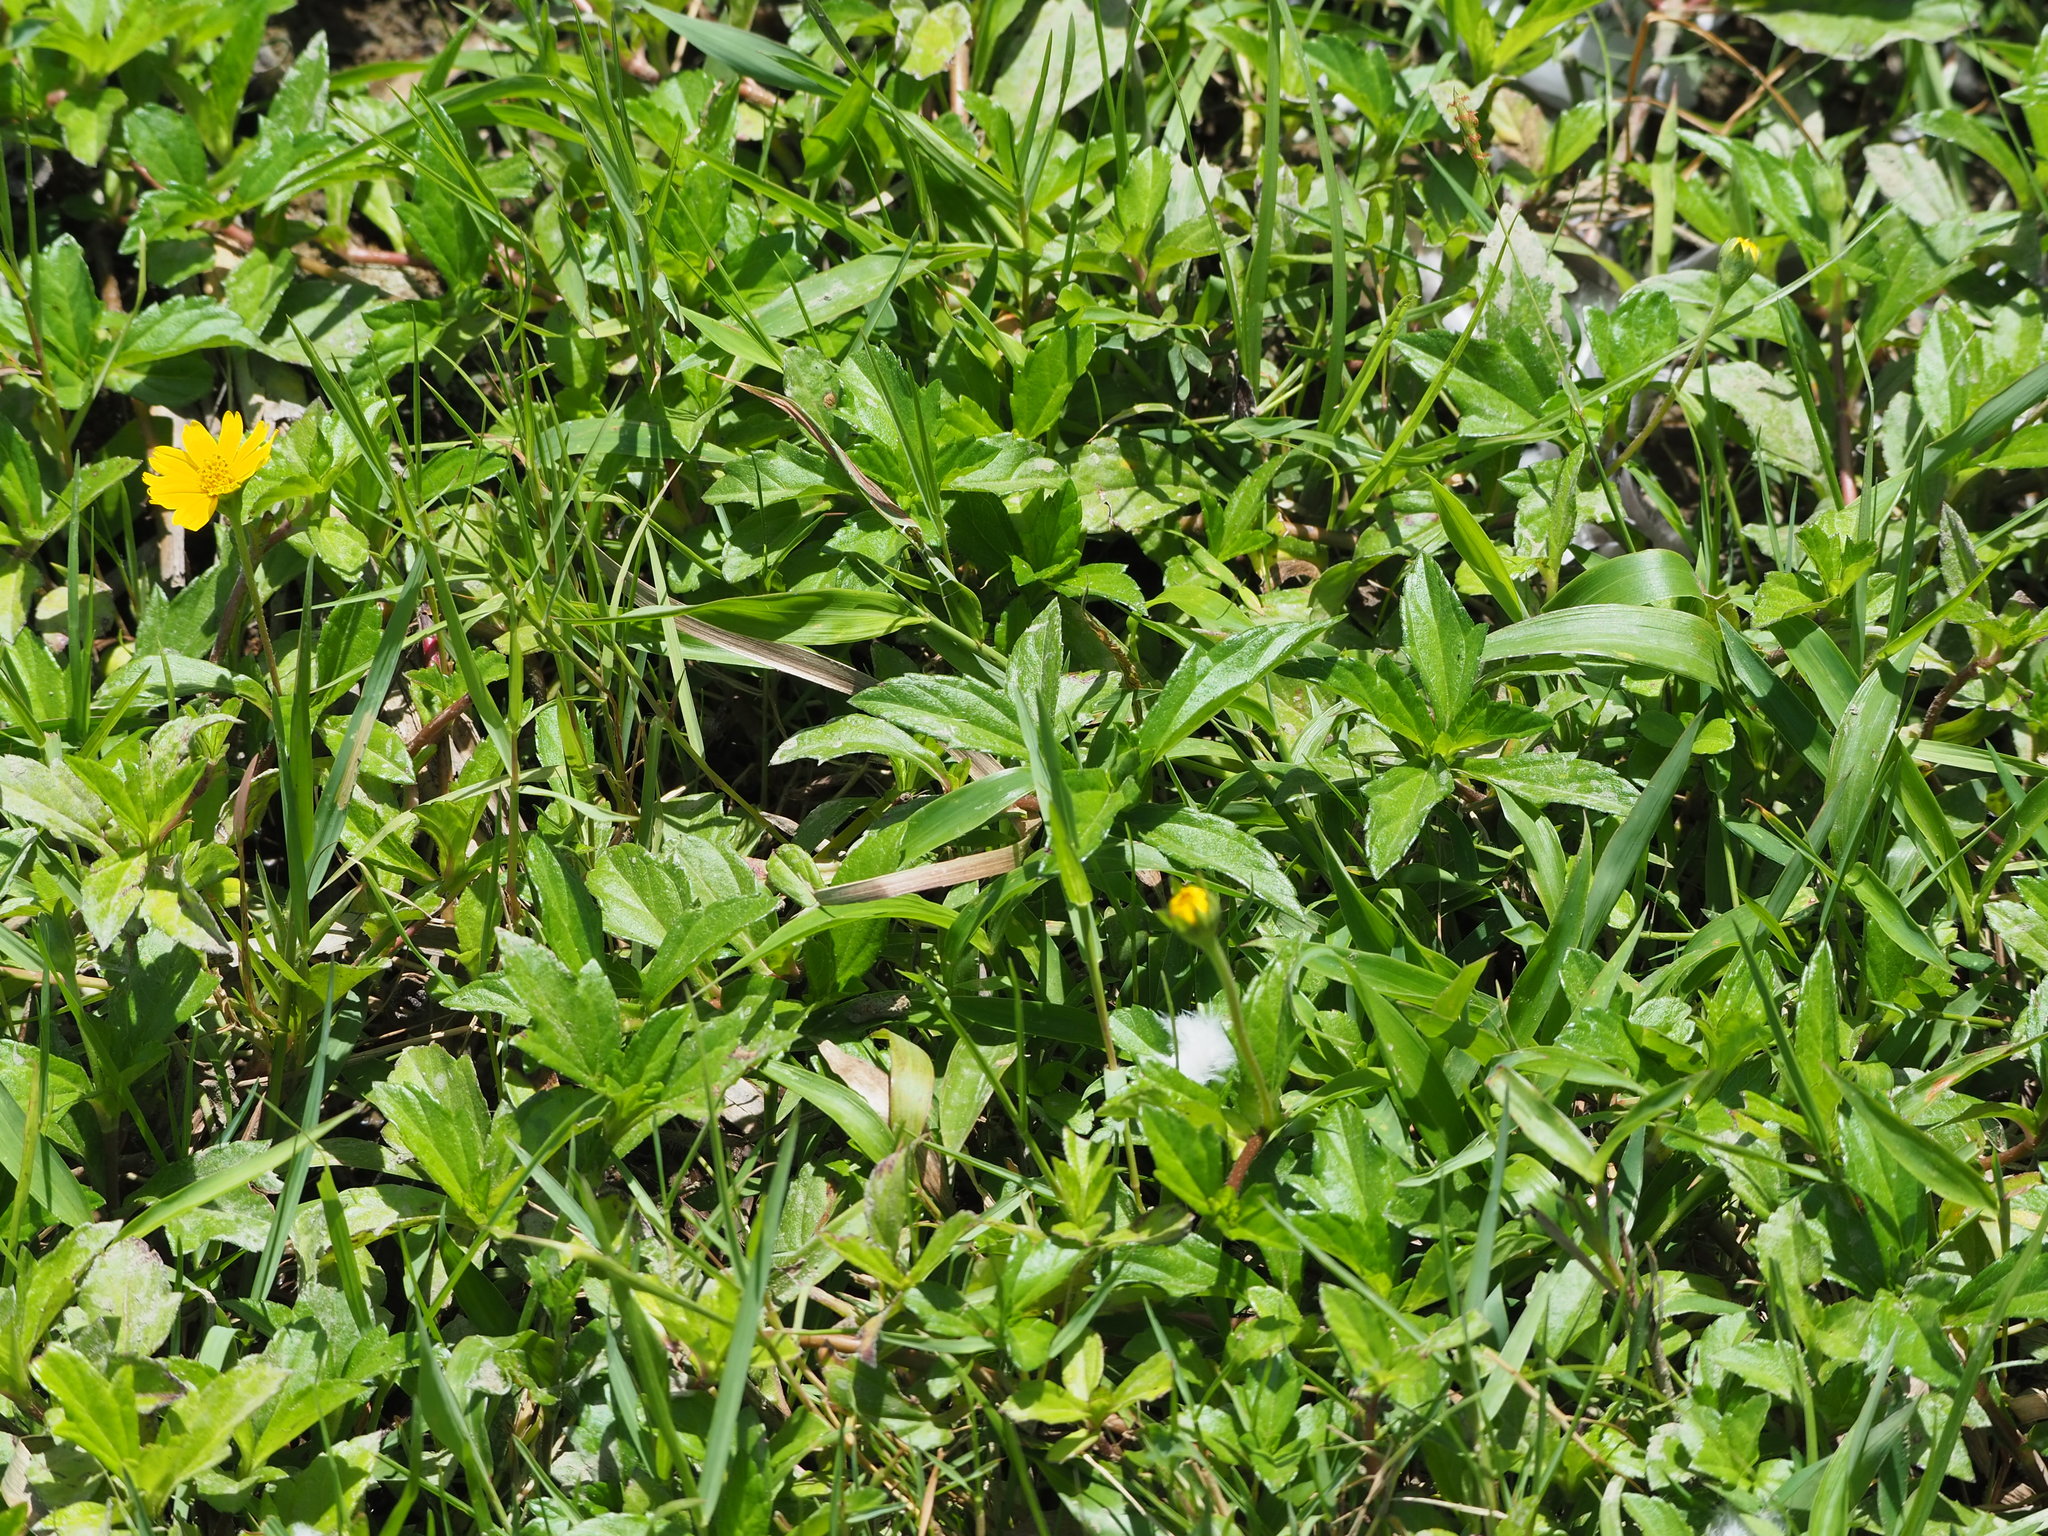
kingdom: Plantae
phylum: Tracheophyta
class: Magnoliopsida
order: Asterales
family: Asteraceae
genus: Sphagneticola
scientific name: Sphagneticola trilobata
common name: Bay biscayne creeping-oxeye
